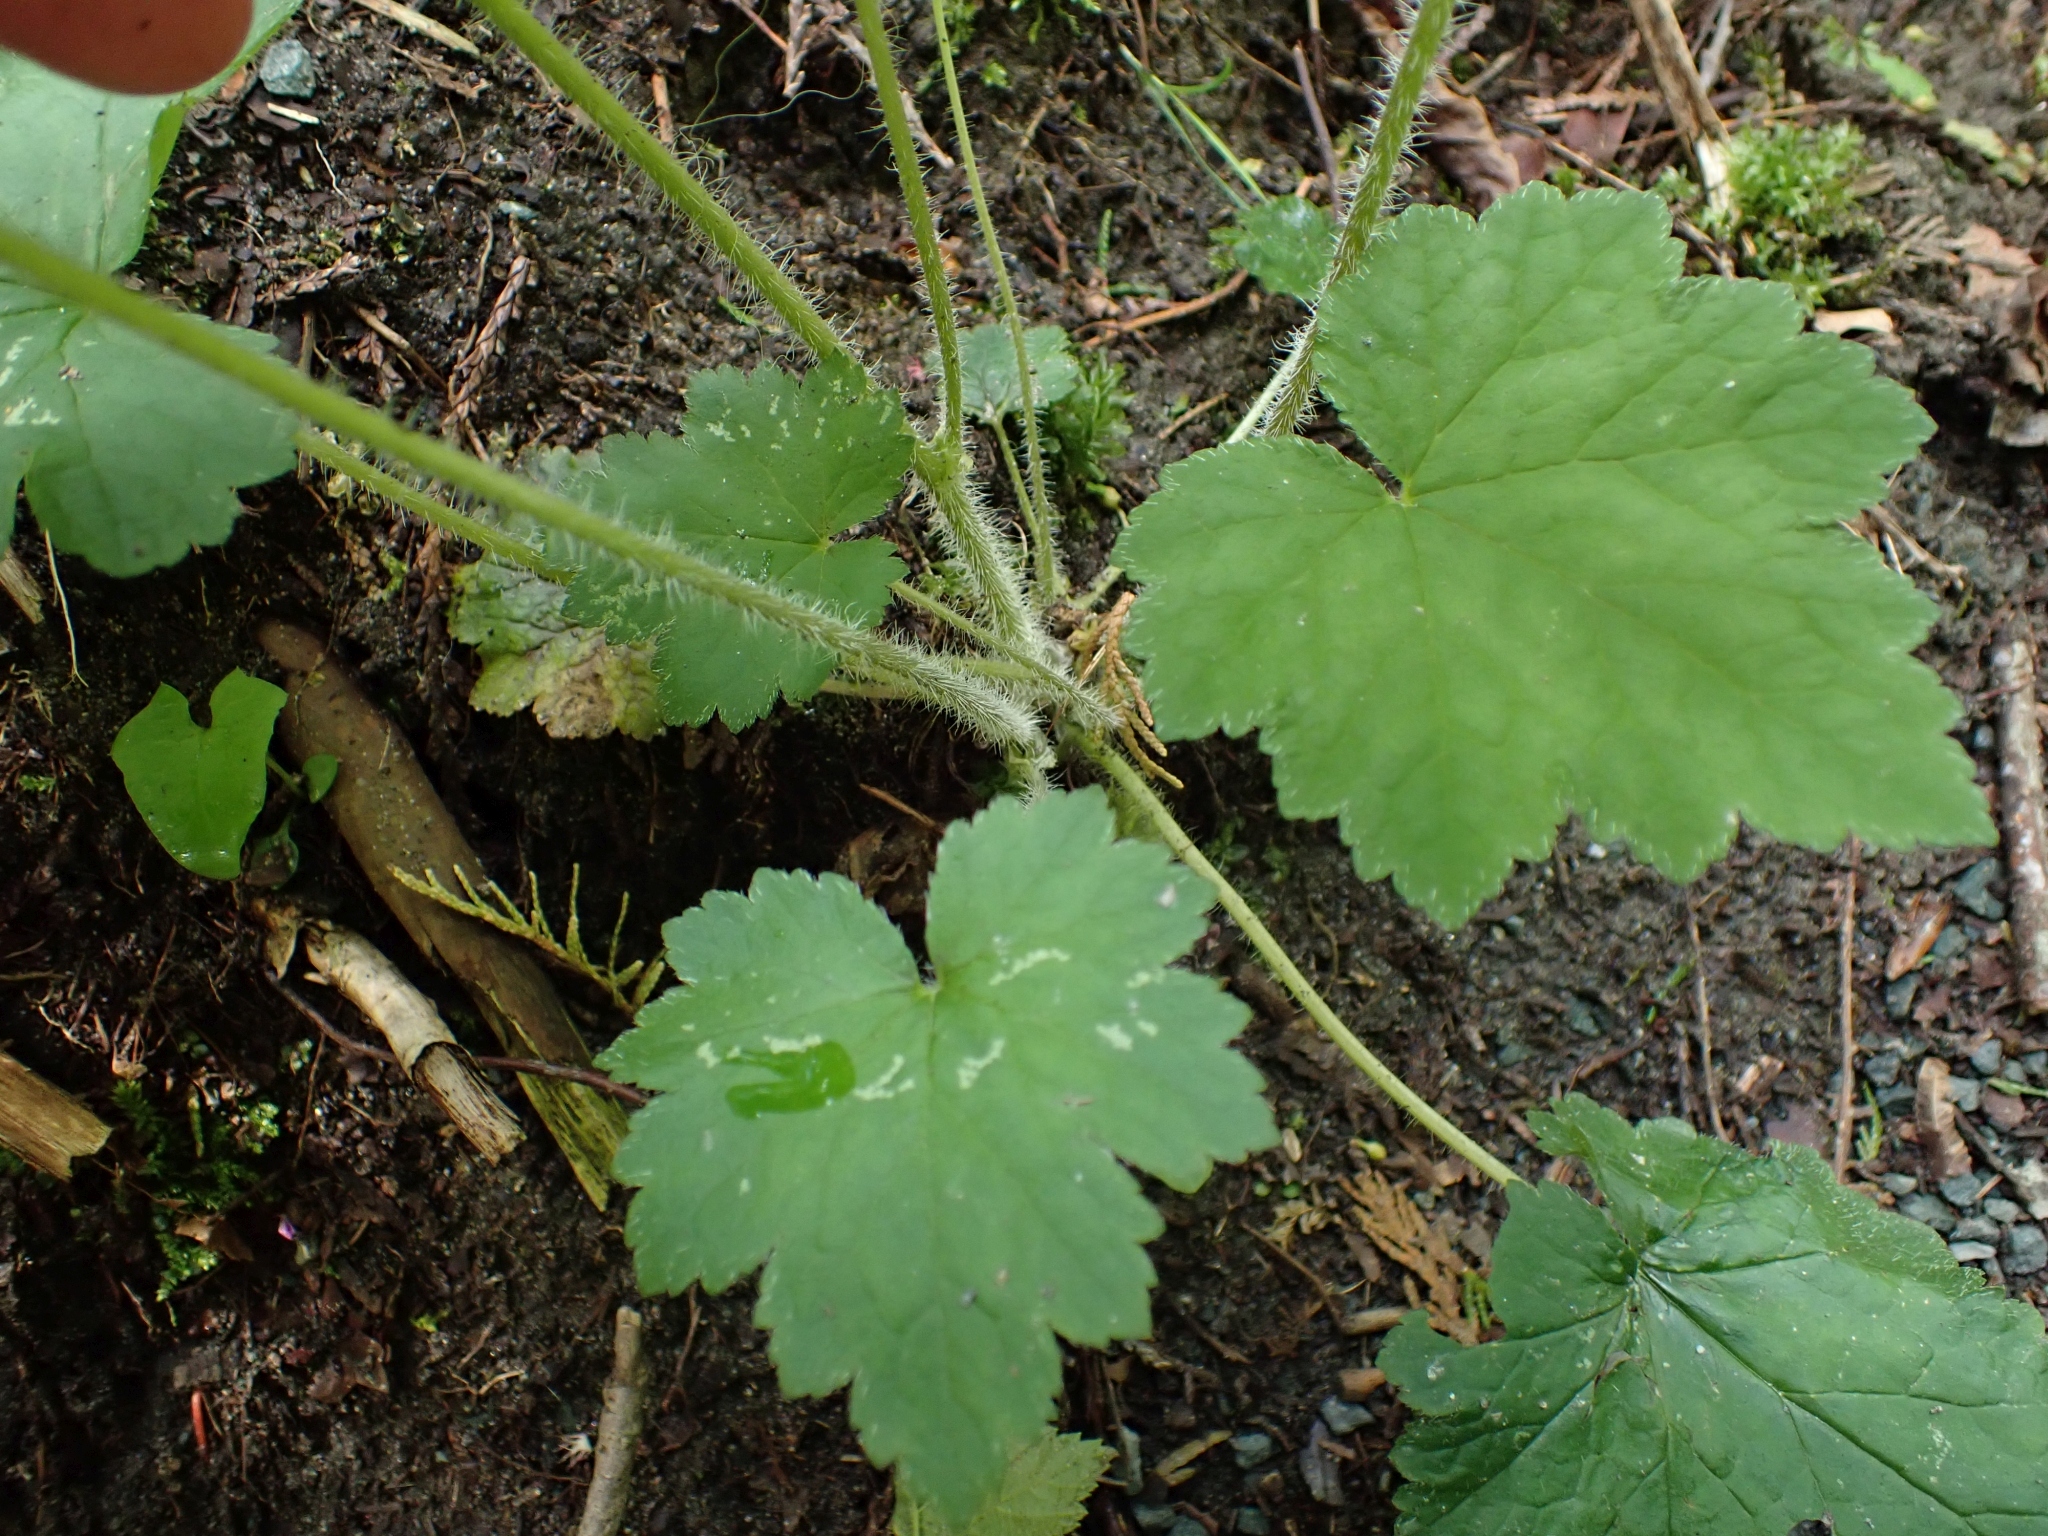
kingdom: Plantae
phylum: Tracheophyta
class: Magnoliopsida
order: Saxifragales
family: Saxifragaceae
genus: Tellima
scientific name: Tellima grandiflora
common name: Fringecups
